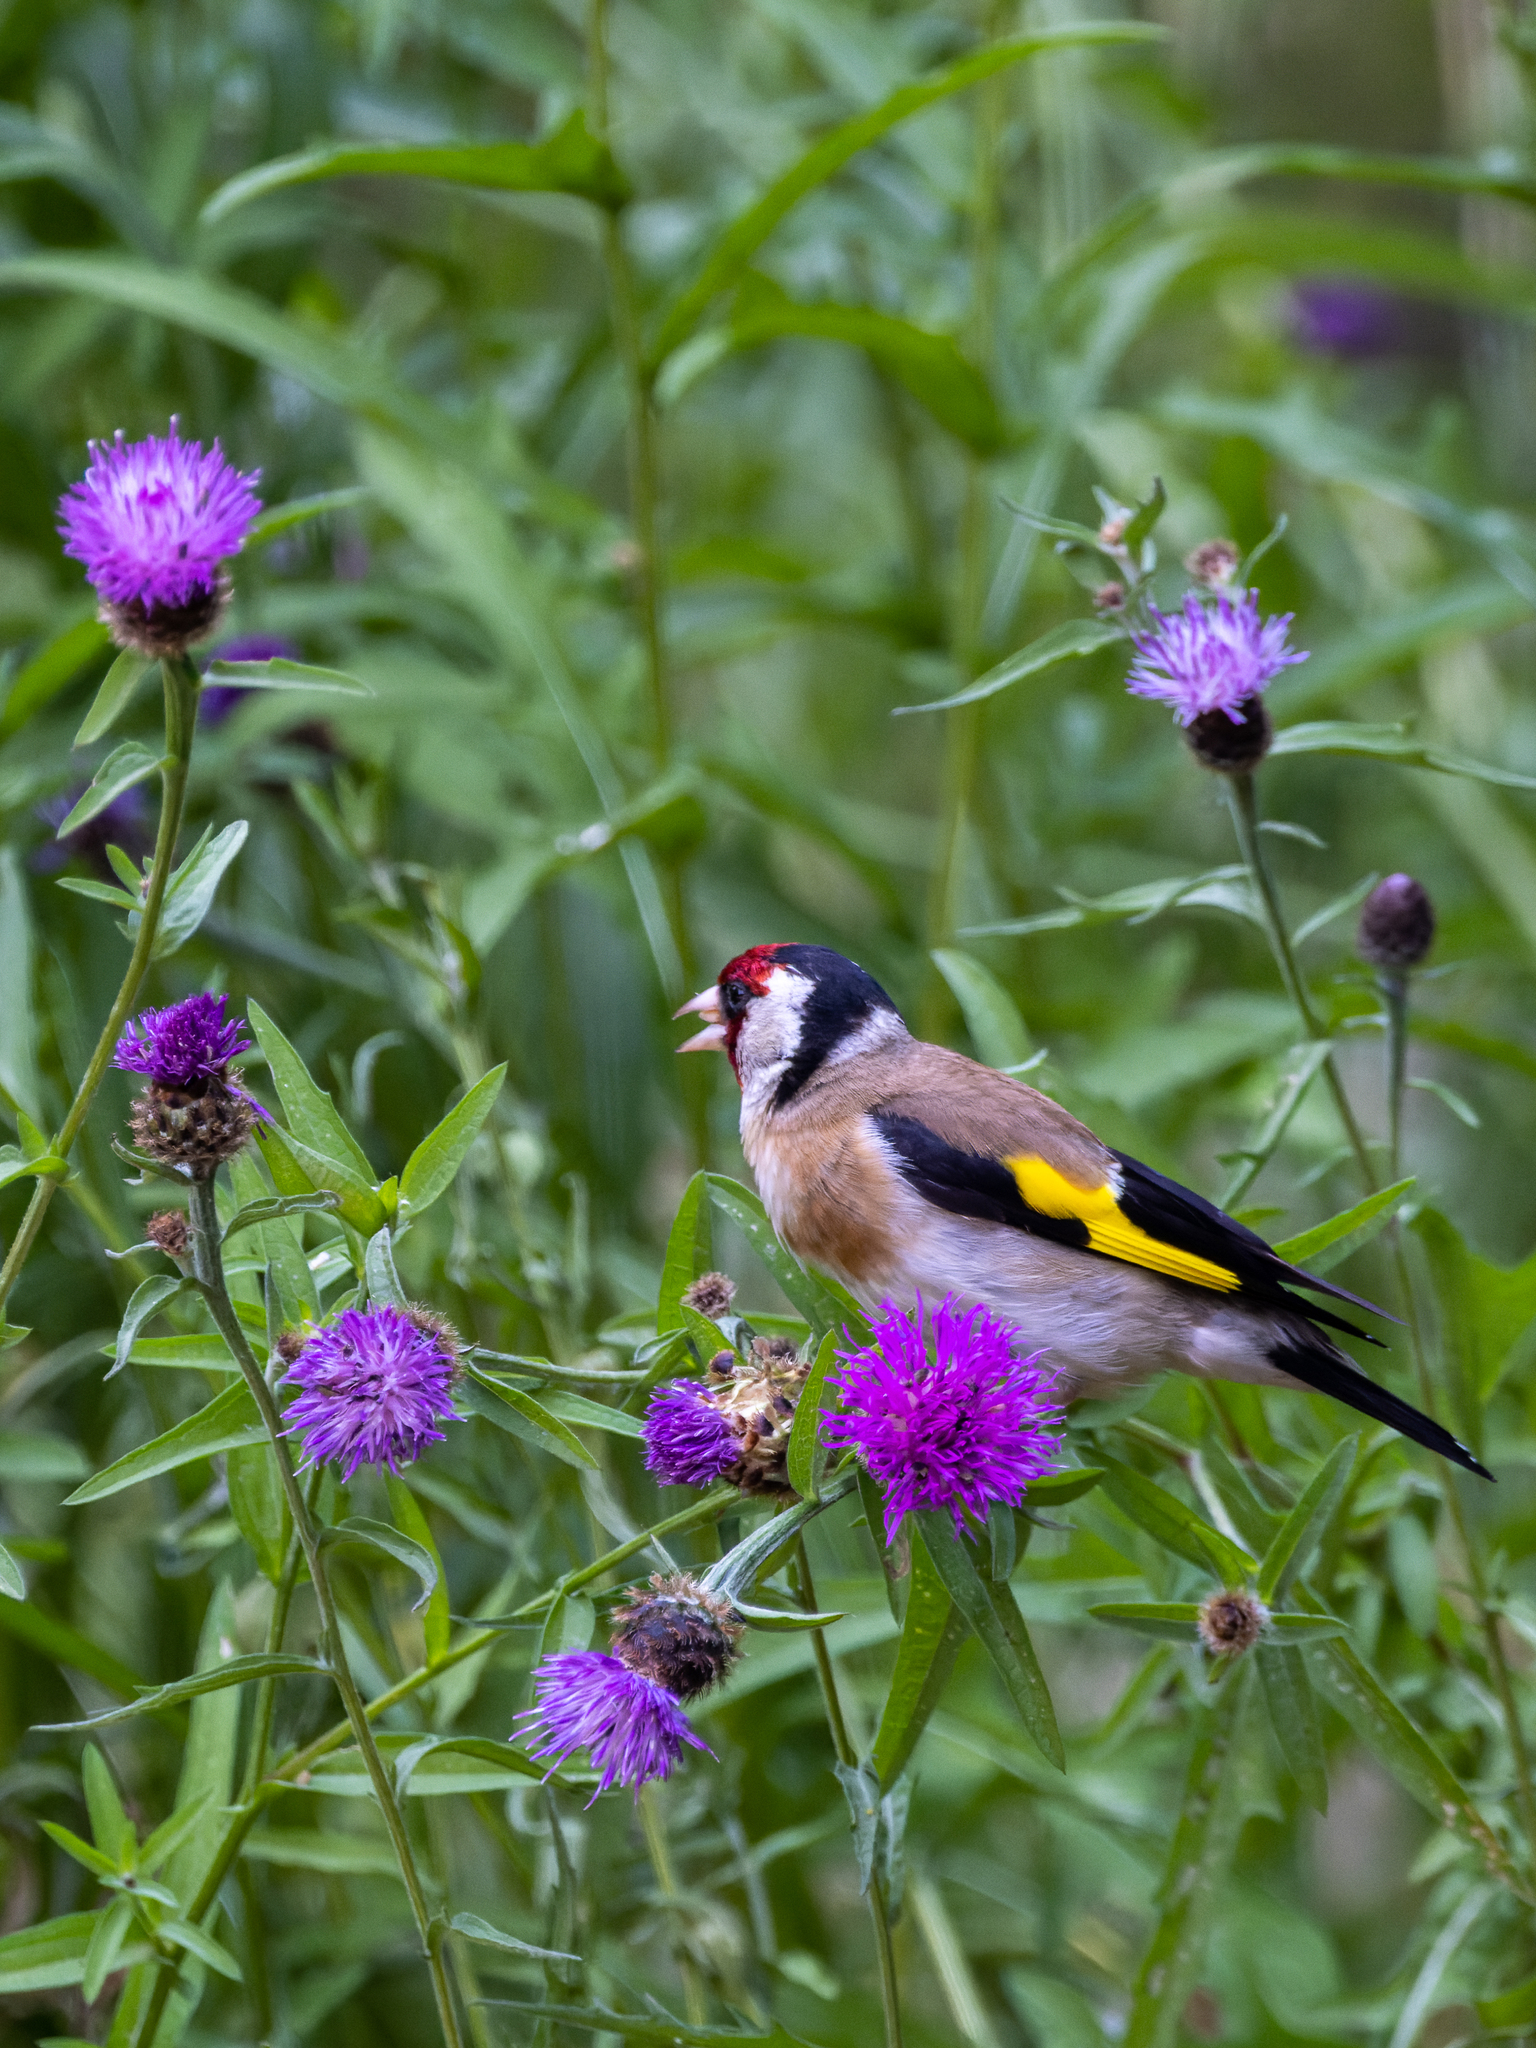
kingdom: Animalia
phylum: Chordata
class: Aves
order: Passeriformes
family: Fringillidae
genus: Carduelis
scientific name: Carduelis carduelis
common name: European goldfinch
